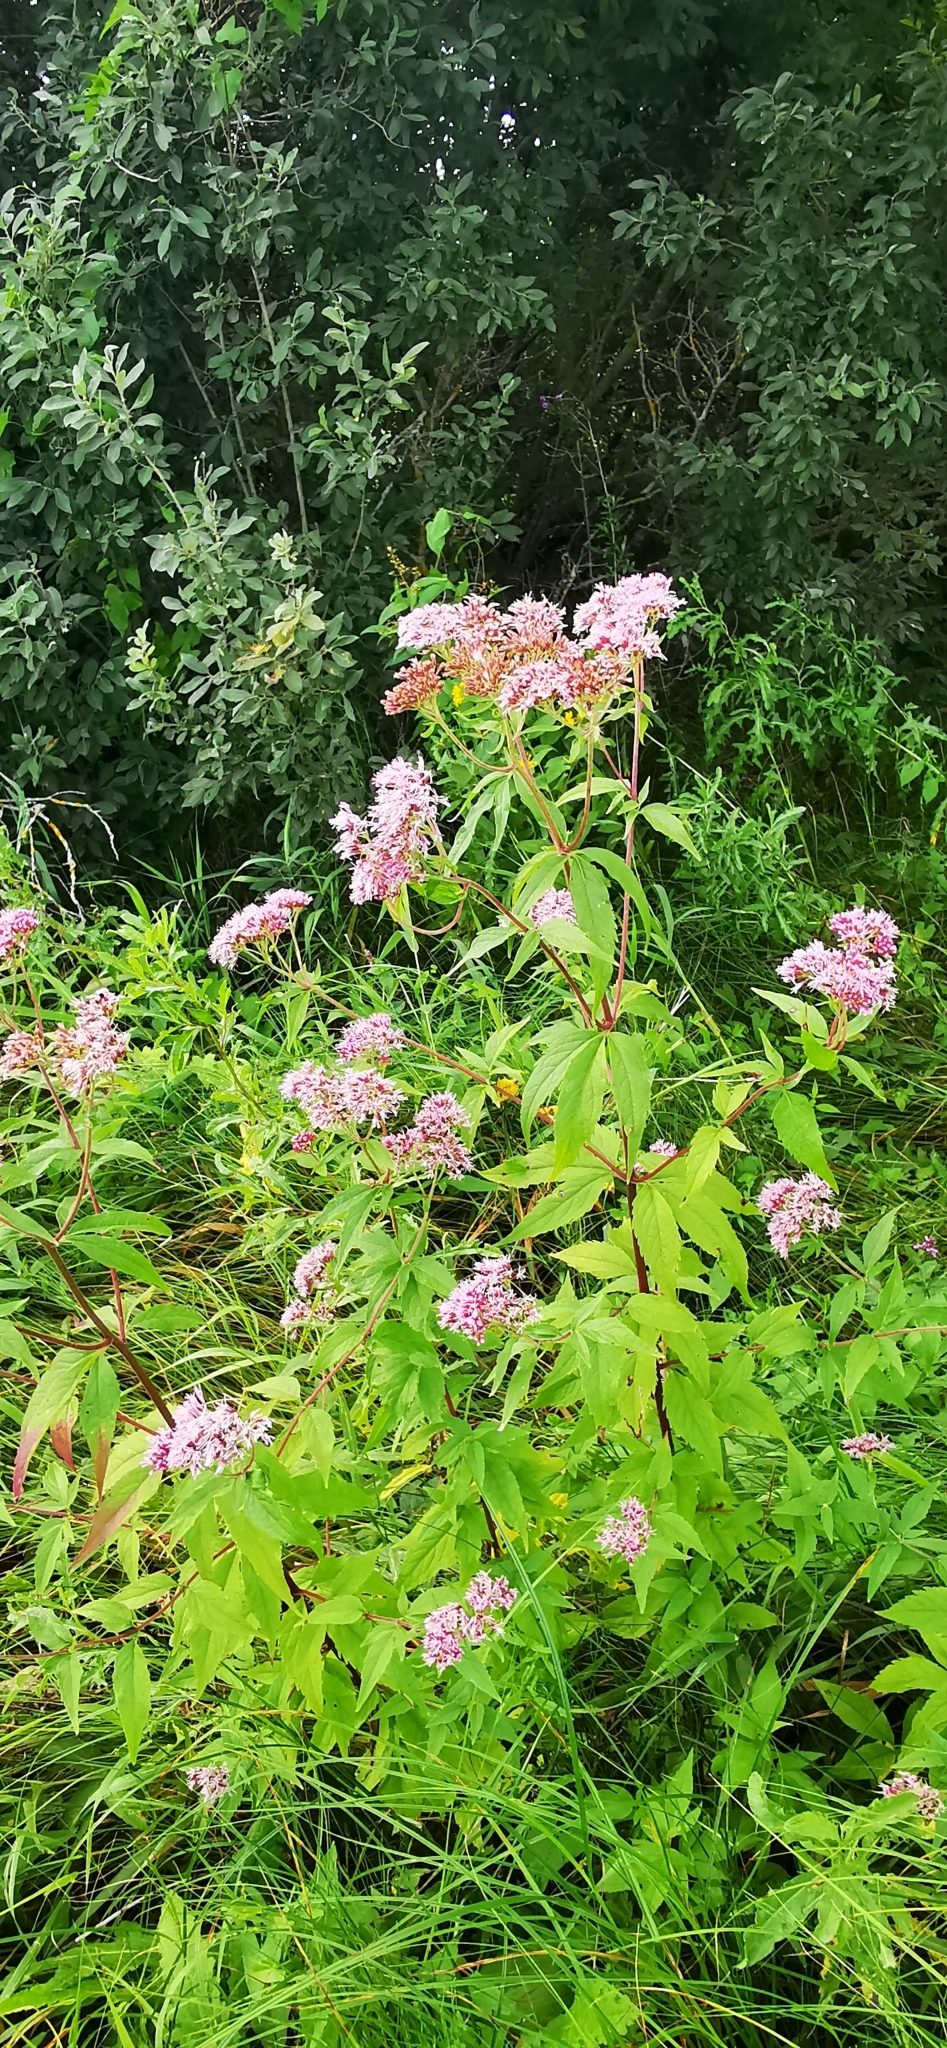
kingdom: Plantae
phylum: Tracheophyta
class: Magnoliopsida
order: Asterales
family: Asteraceae
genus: Eupatorium
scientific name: Eupatorium cannabinum
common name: Hemp-agrimony
